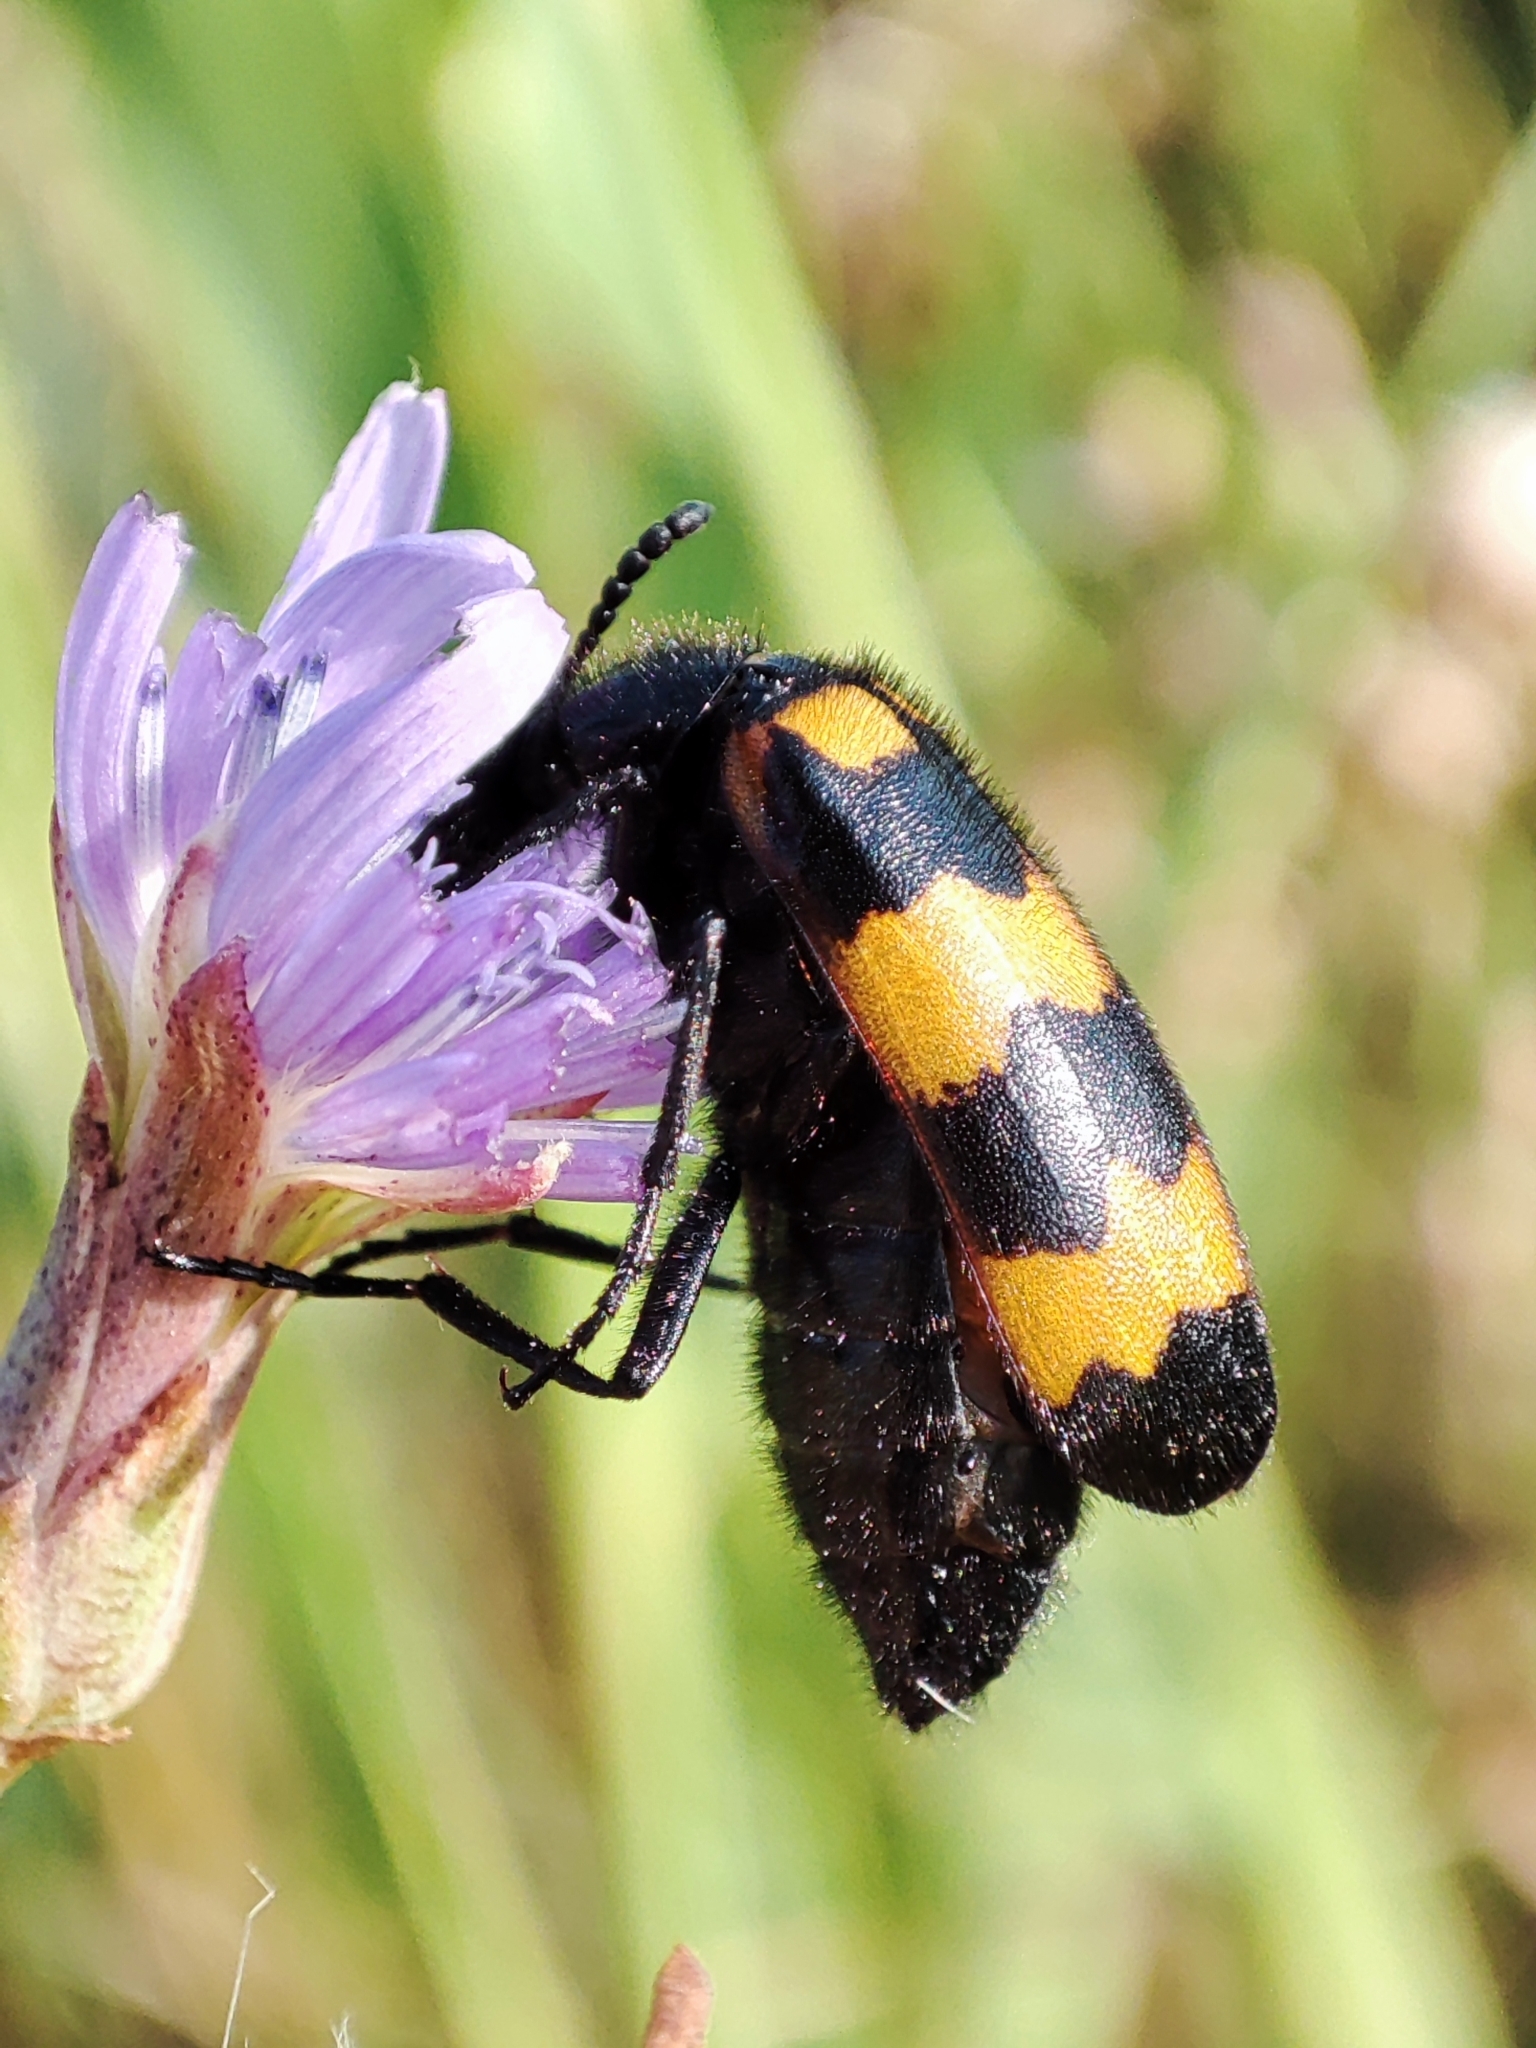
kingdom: Animalia
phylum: Arthropoda
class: Insecta
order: Coleoptera
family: Meloidae
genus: Mylabris
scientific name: Mylabris variabilis
